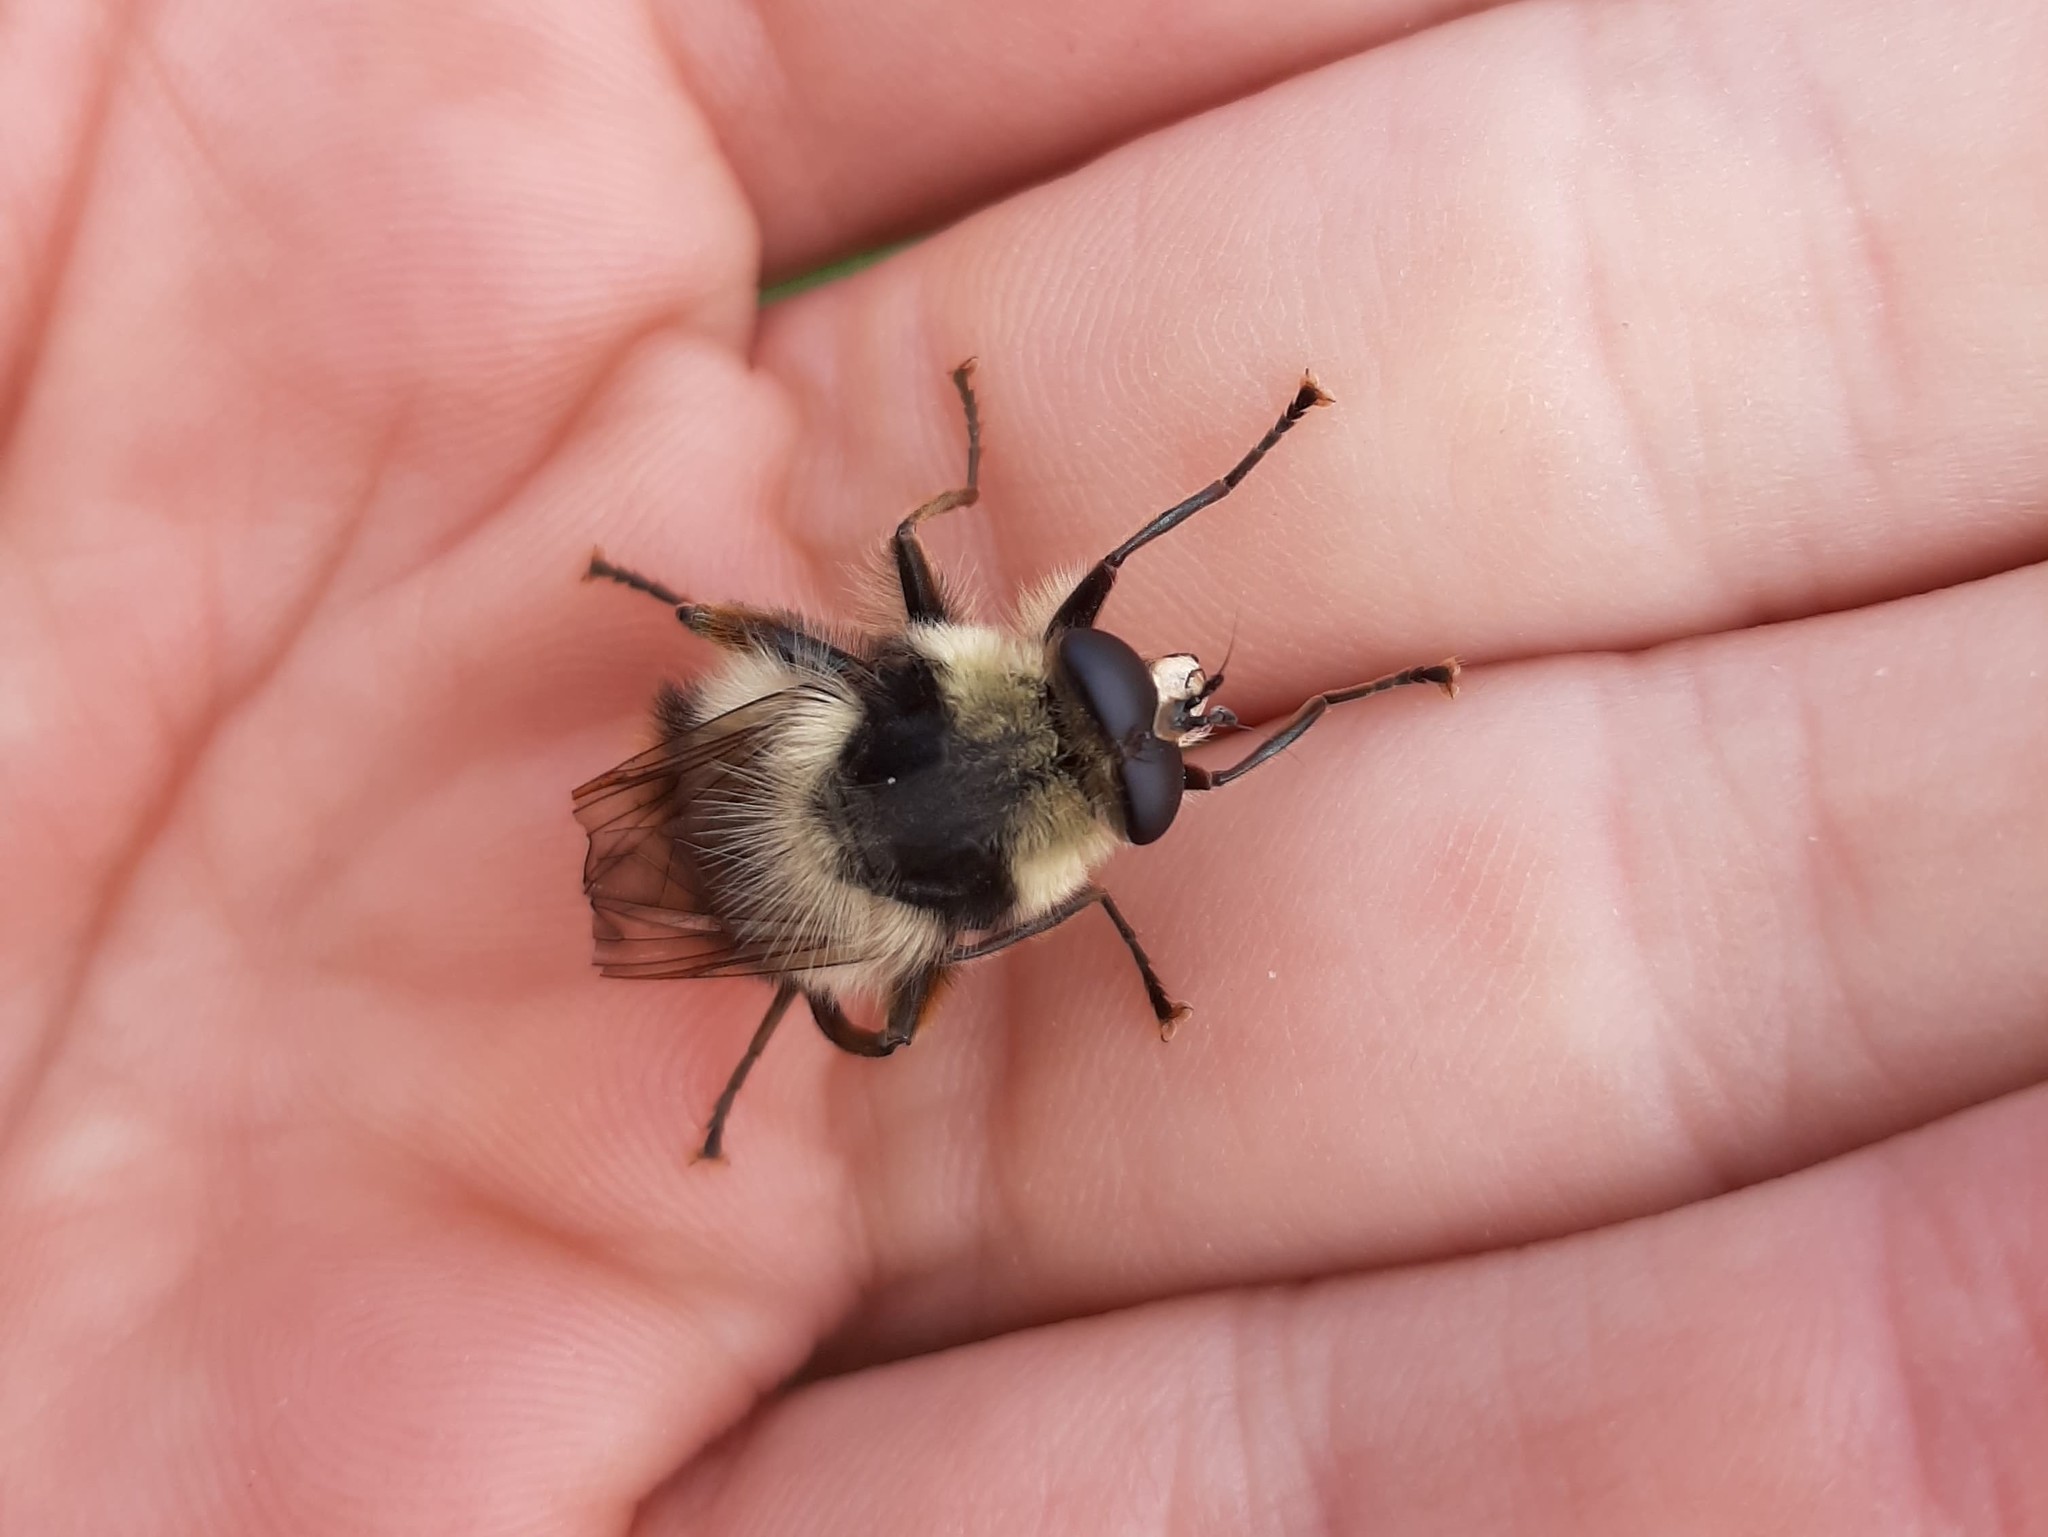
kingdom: Animalia
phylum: Arthropoda
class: Insecta
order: Diptera
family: Syrphidae
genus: Criorhina
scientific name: Criorhina kincaidi
